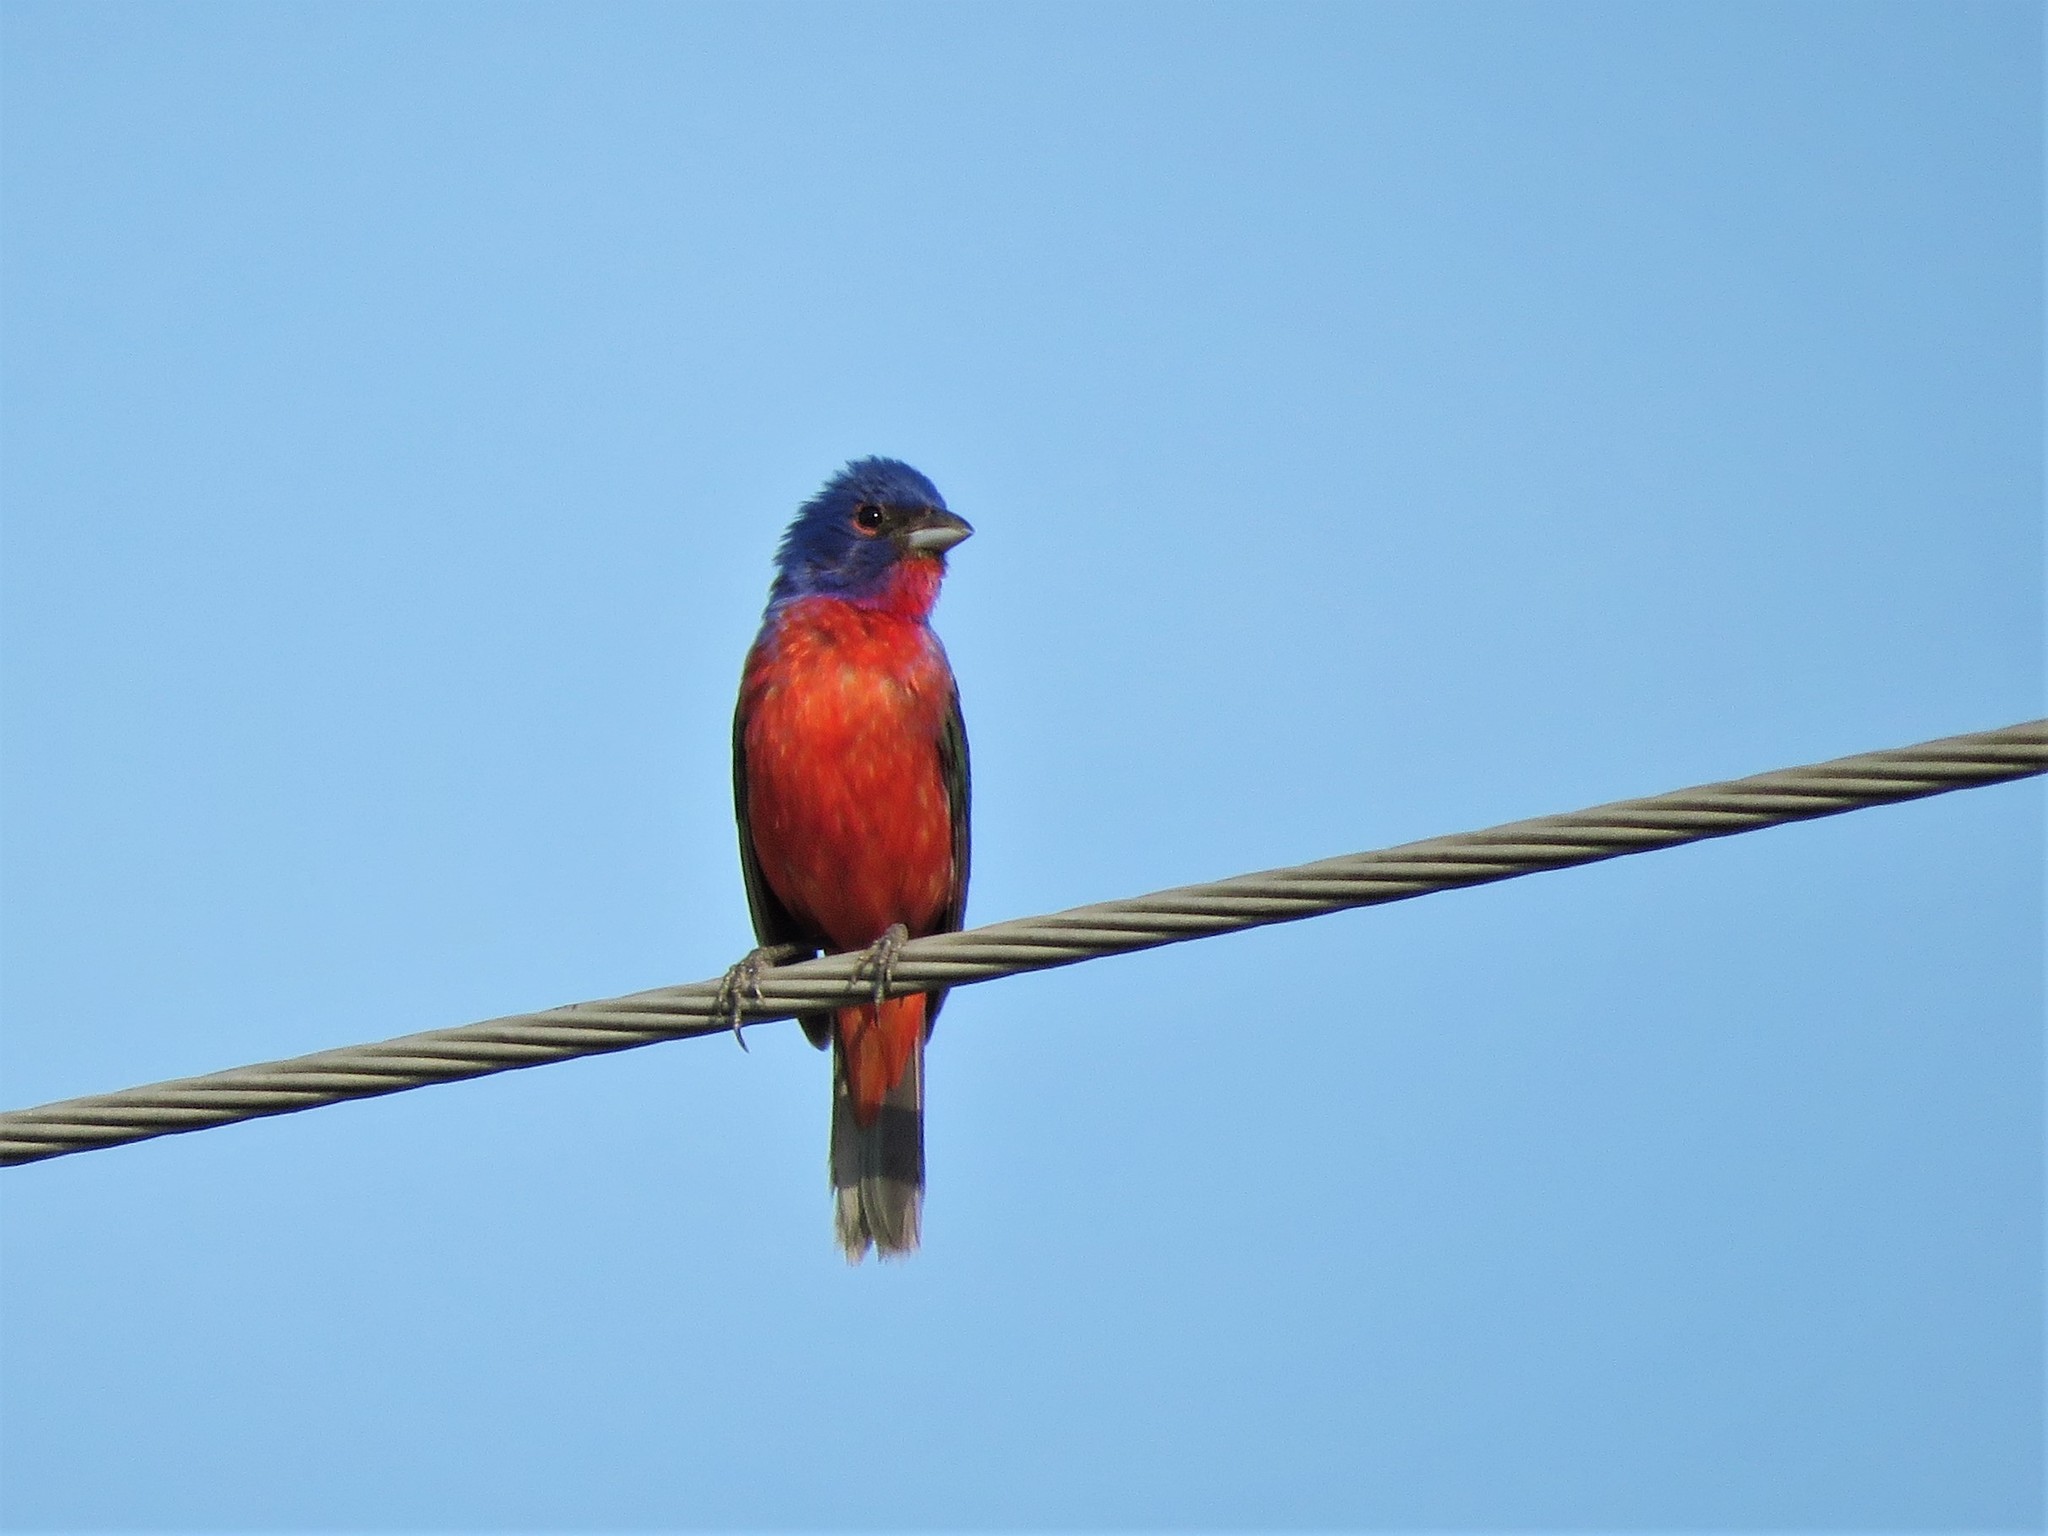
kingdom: Animalia
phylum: Chordata
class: Aves
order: Passeriformes
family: Cardinalidae
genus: Passerina
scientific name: Passerina ciris
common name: Painted bunting
